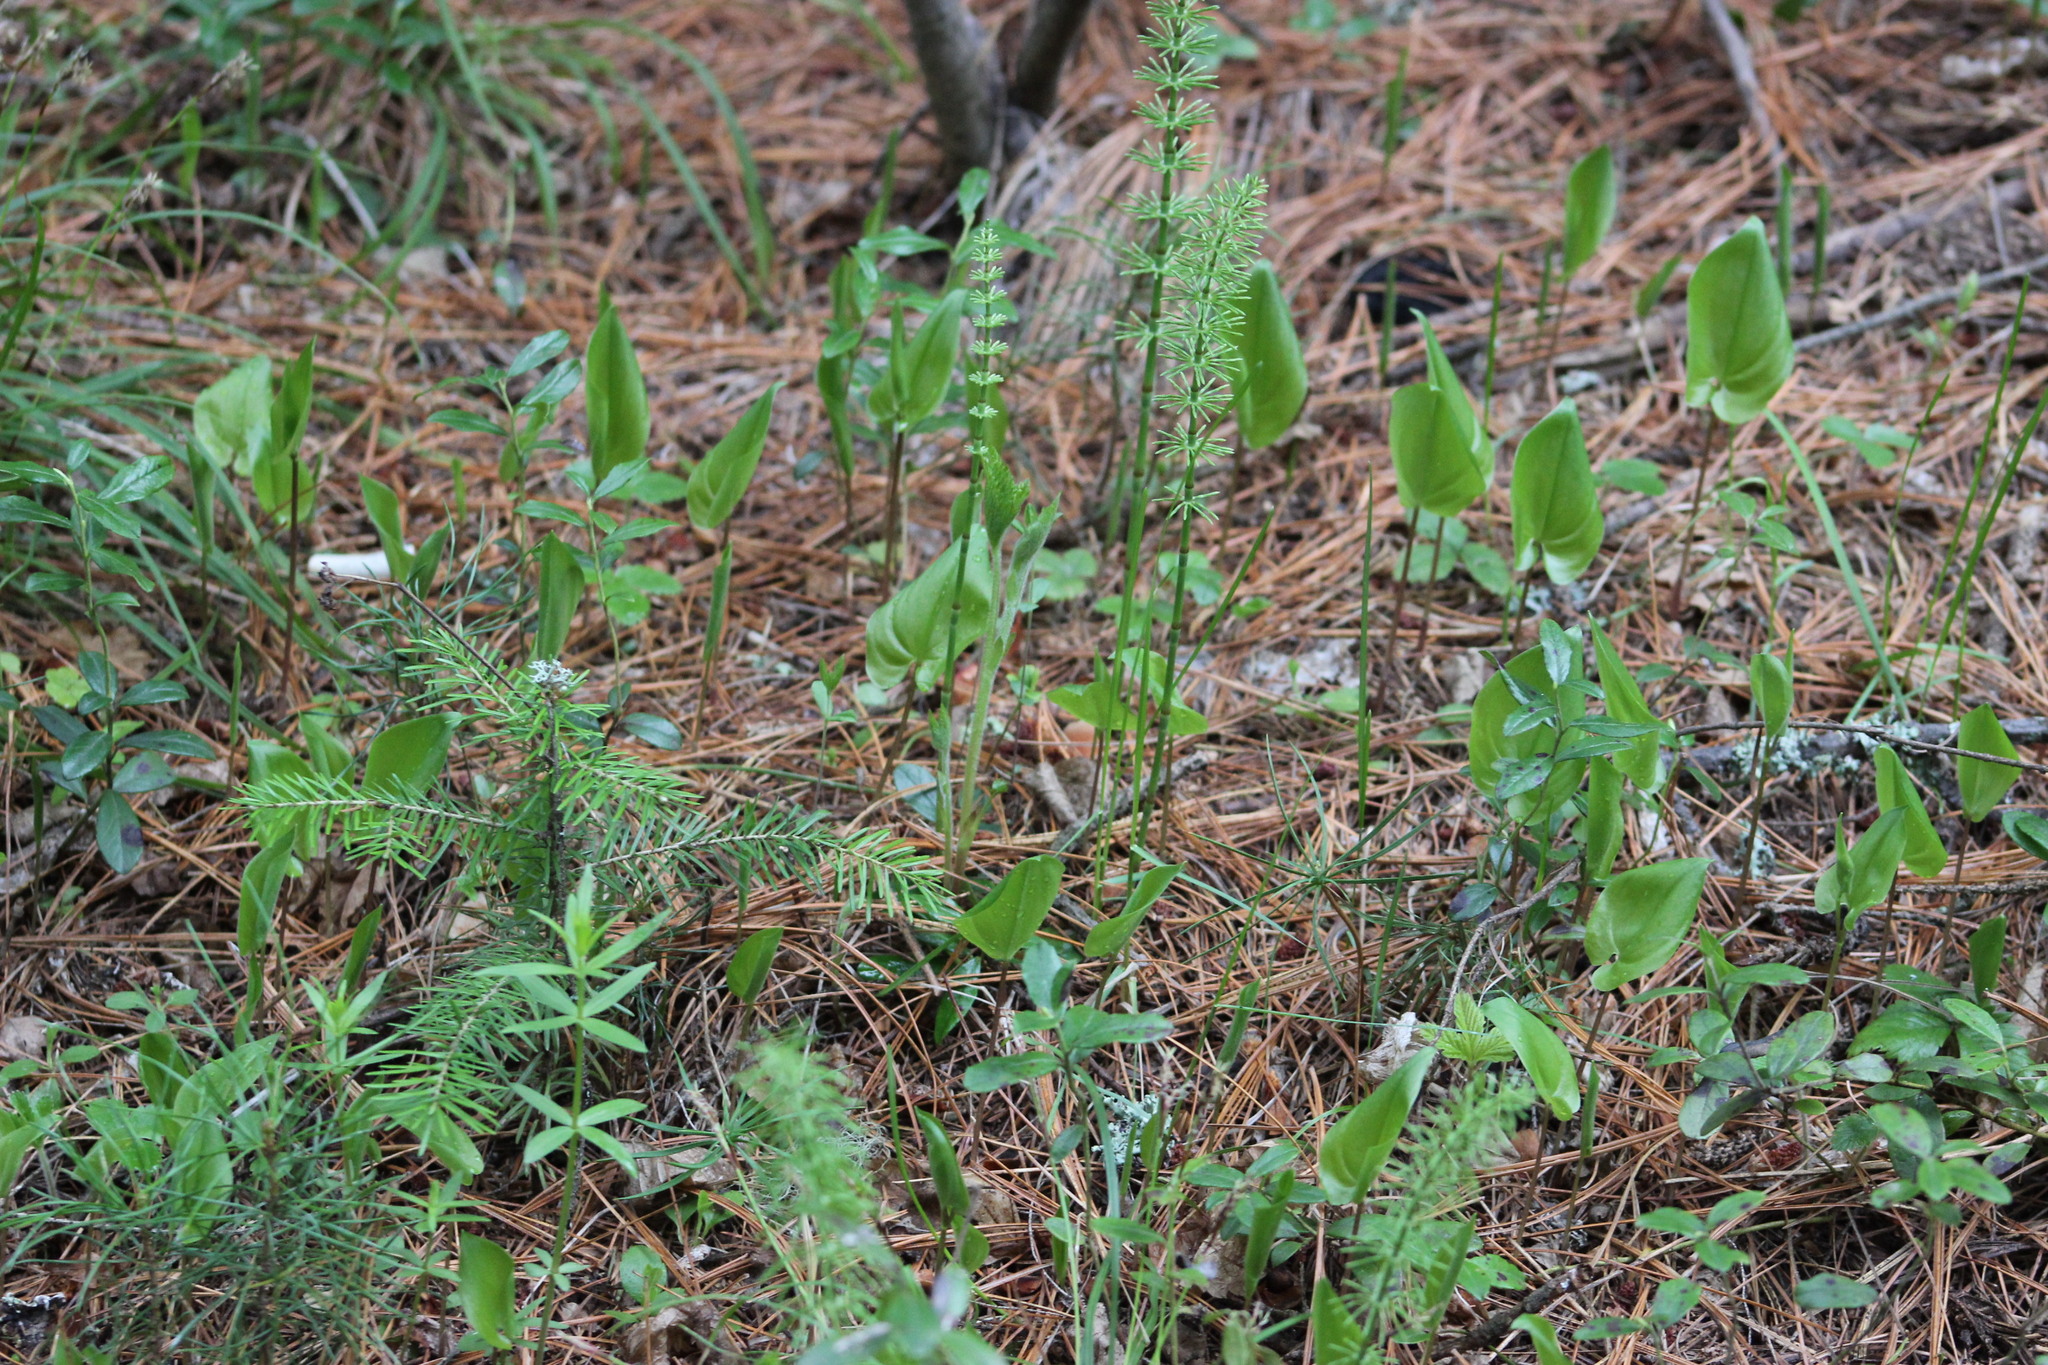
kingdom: Plantae
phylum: Tracheophyta
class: Liliopsida
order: Asparagales
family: Asparagaceae
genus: Maianthemum
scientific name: Maianthemum bifolium
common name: May lily
